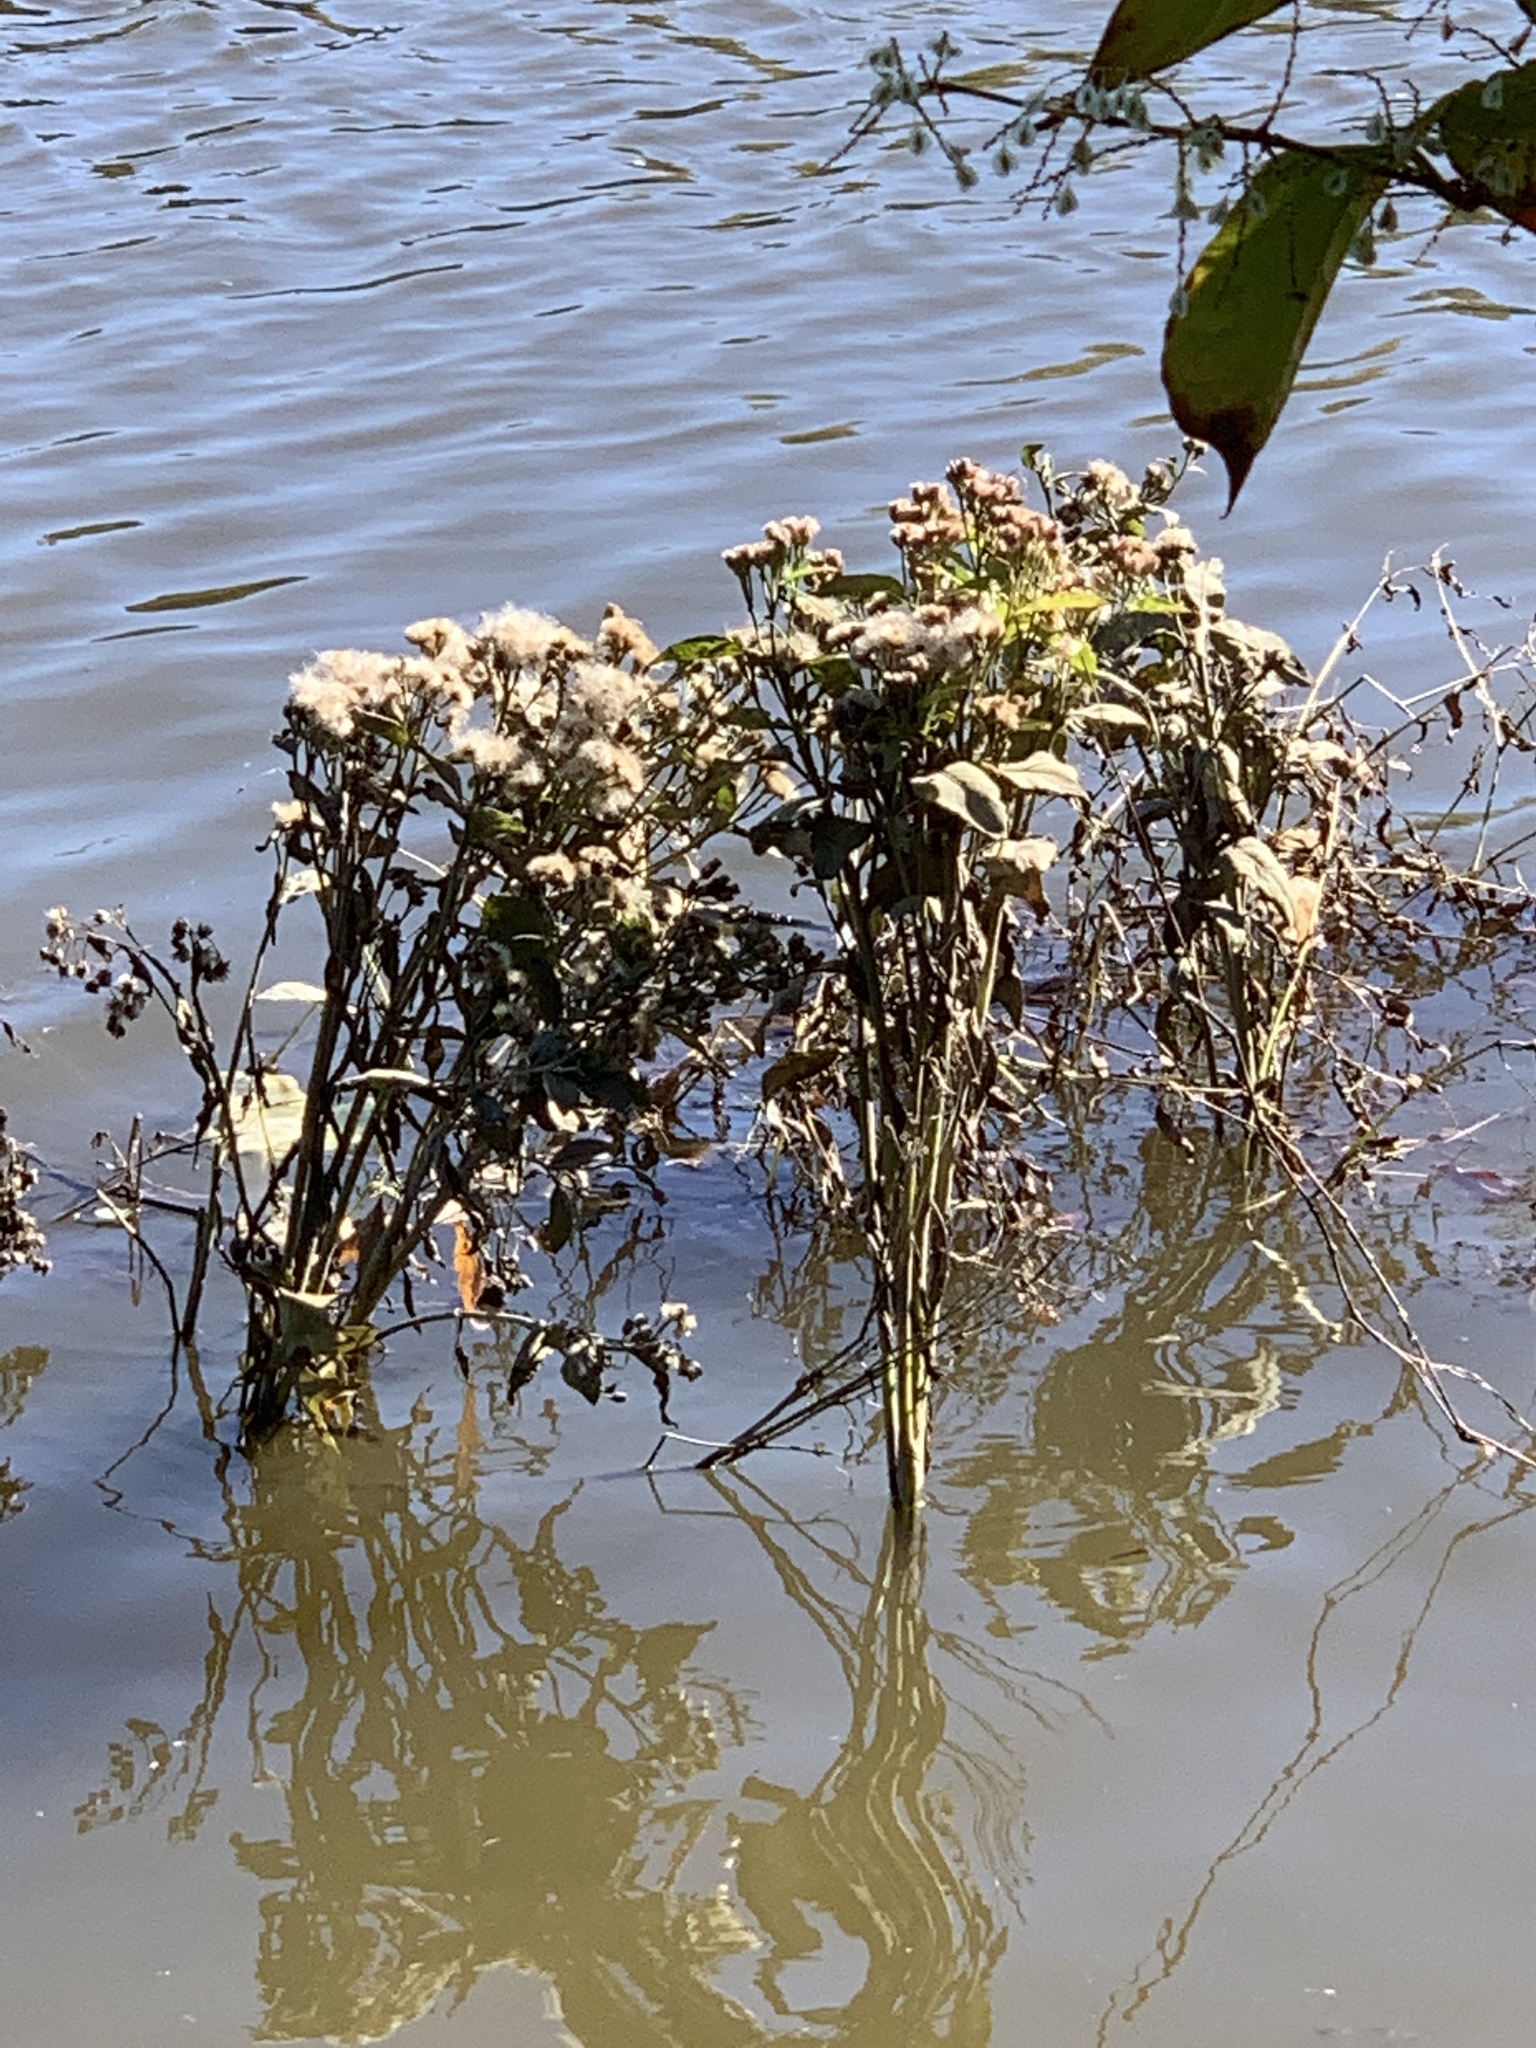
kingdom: Plantae
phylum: Tracheophyta
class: Magnoliopsida
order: Asterales
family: Asteraceae
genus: Pluchea
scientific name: Pluchea odorata
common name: Saltmarsh fleabane
